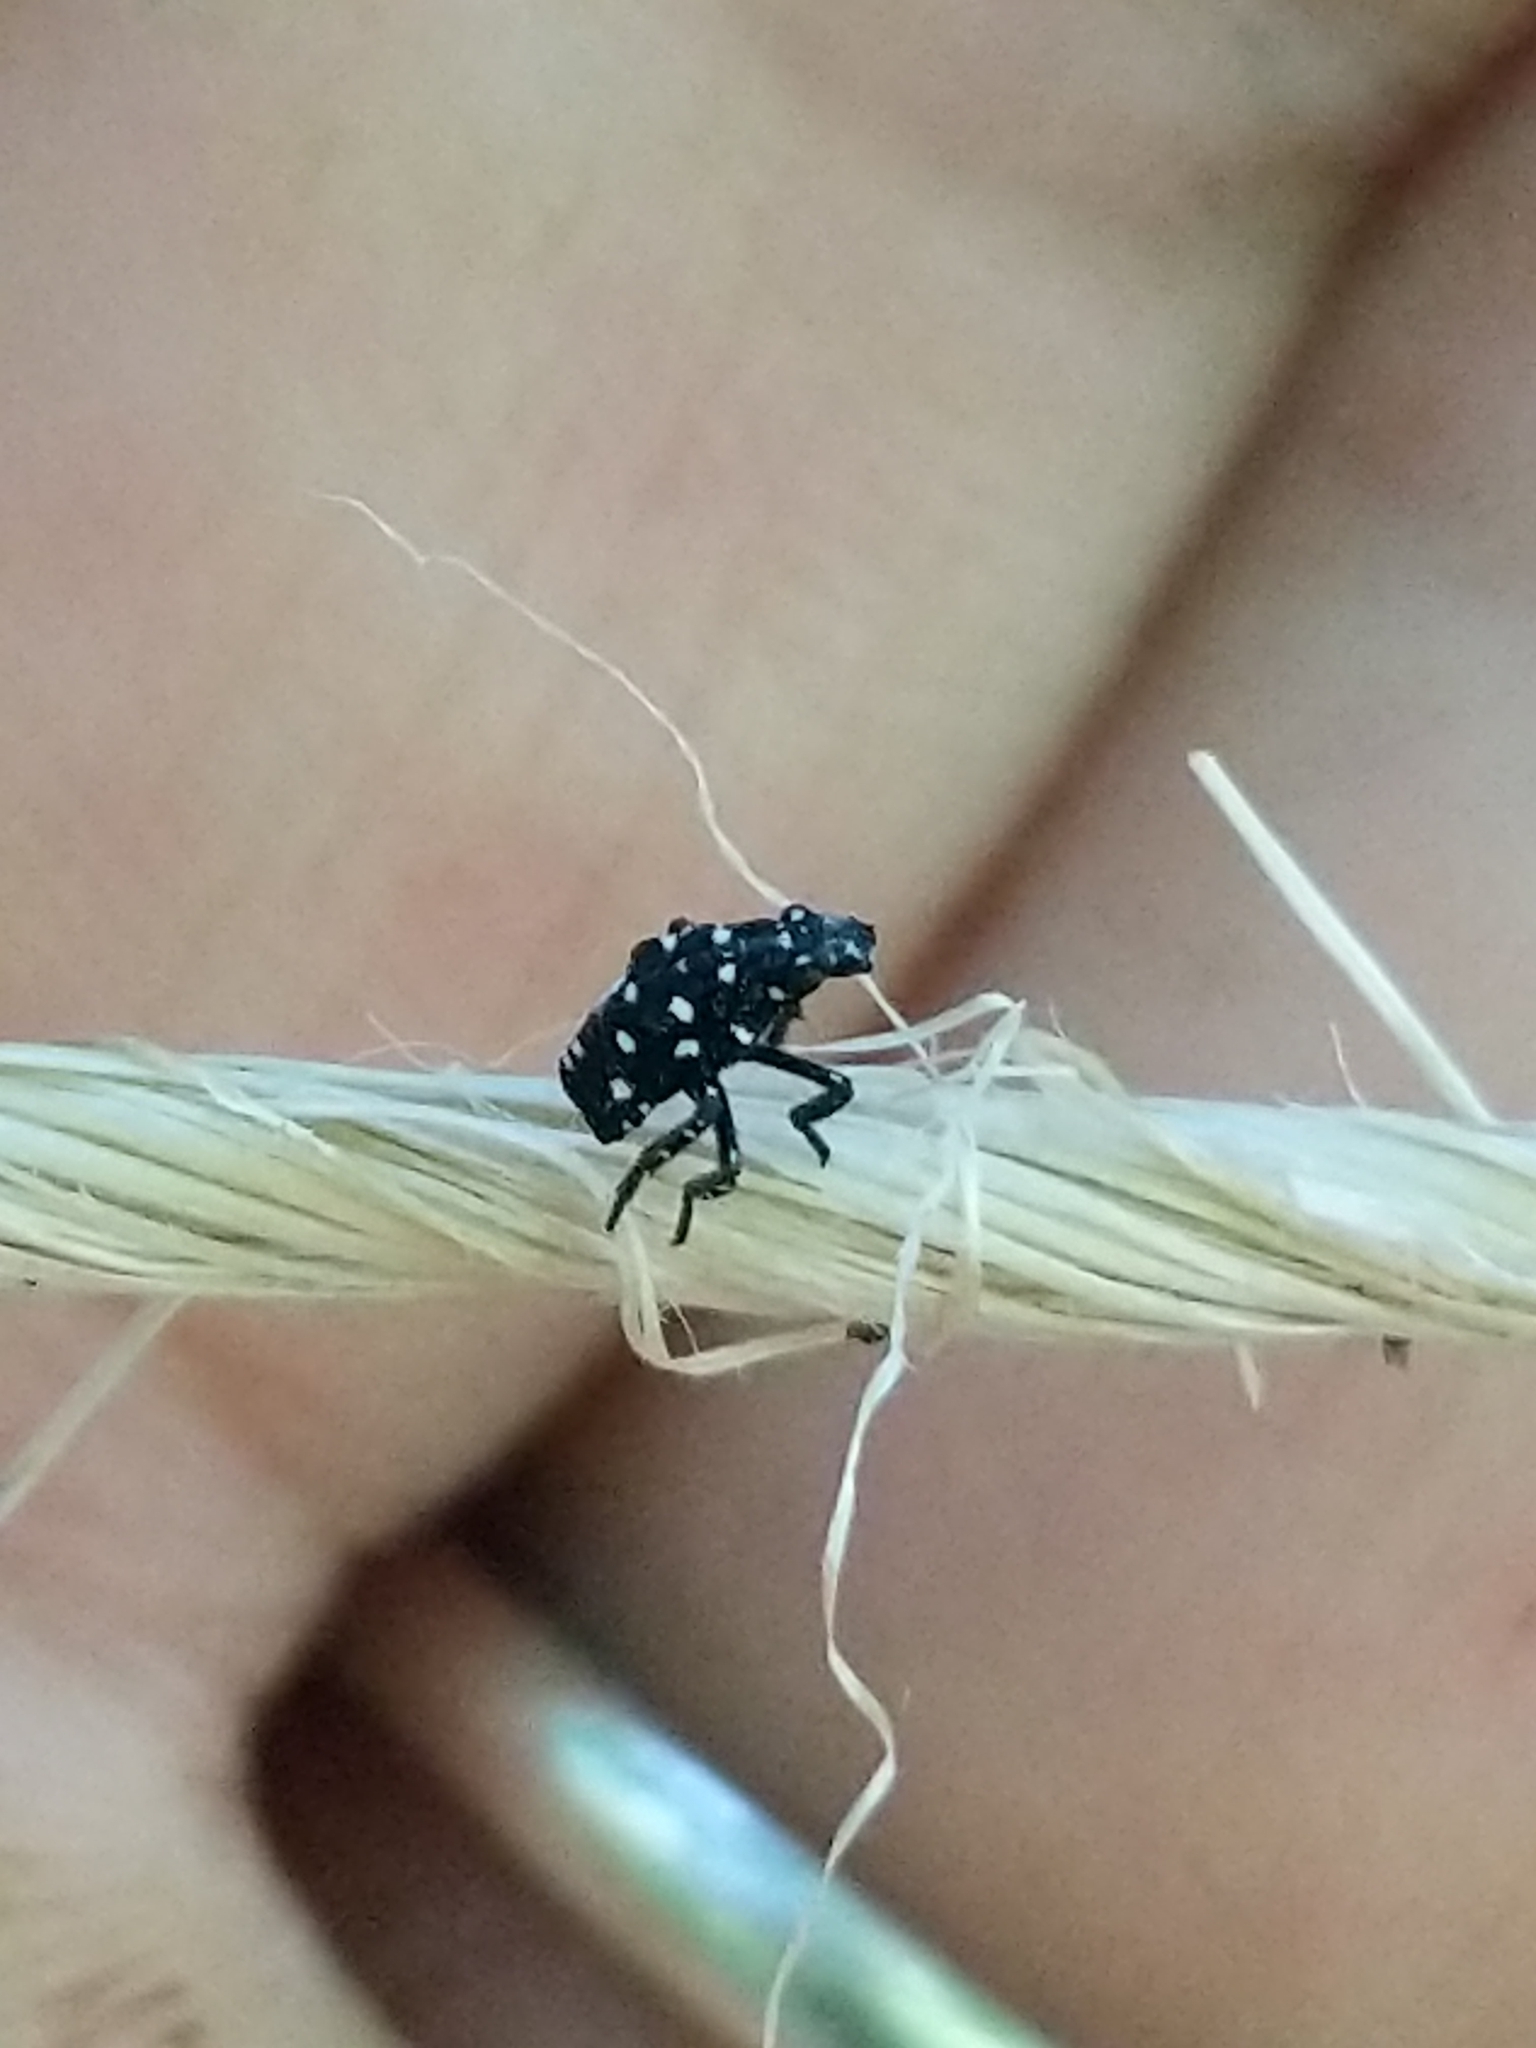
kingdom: Animalia
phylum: Arthropoda
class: Insecta
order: Hemiptera
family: Fulgoridae
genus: Lycorma
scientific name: Lycorma delicatula
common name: Spotted lanternfly
